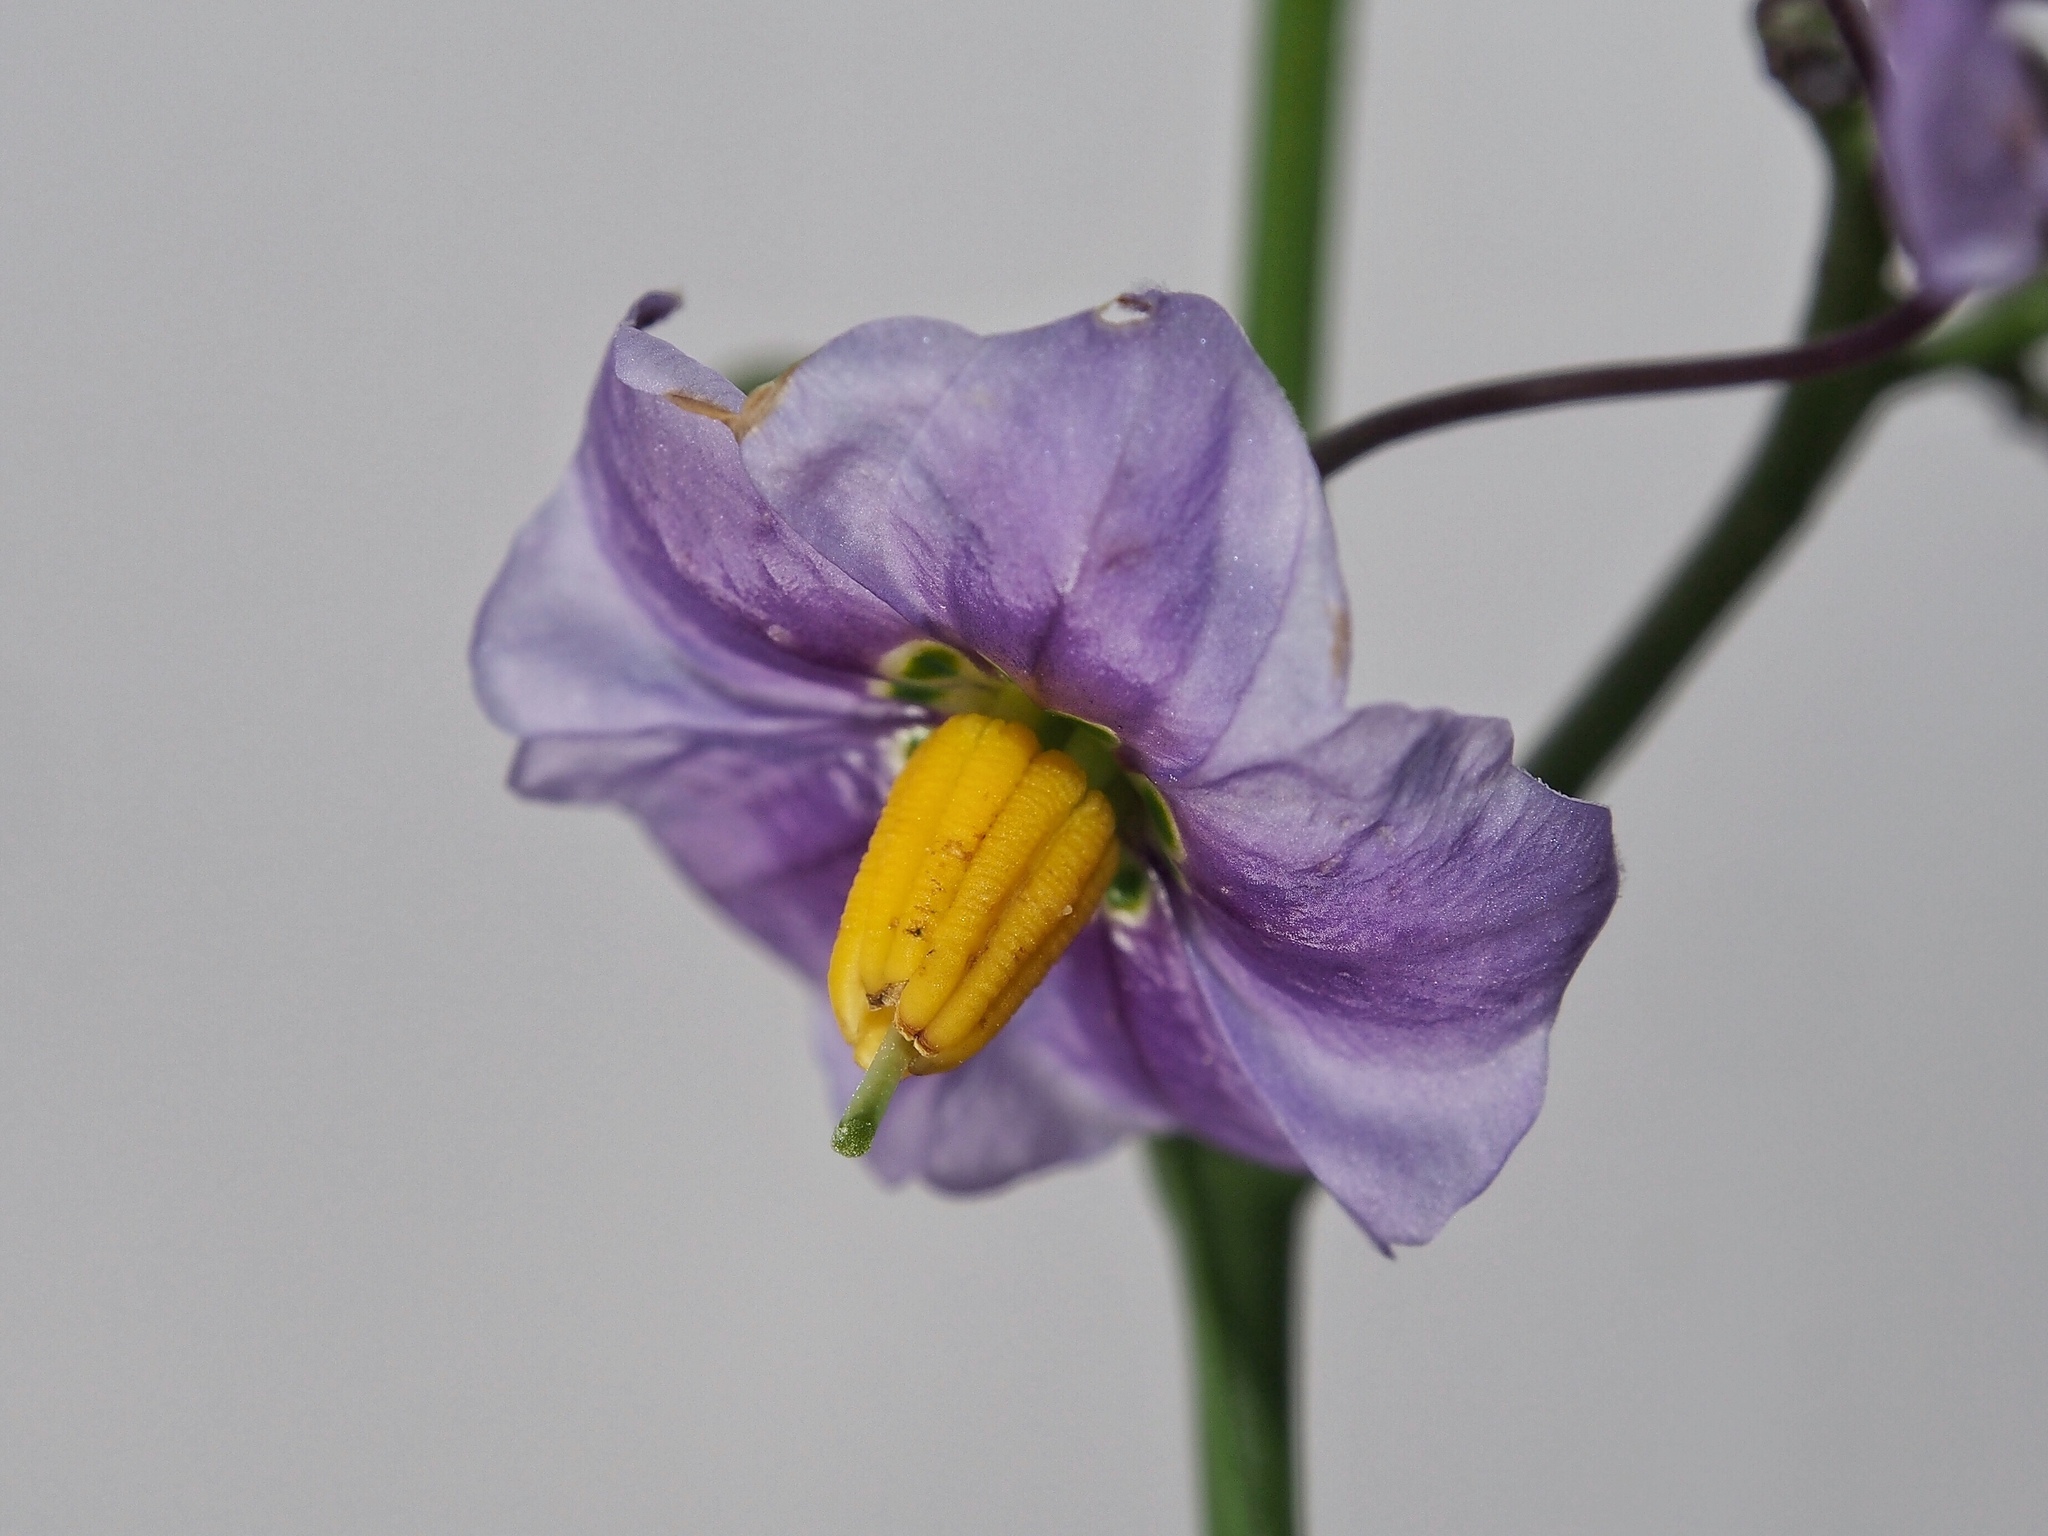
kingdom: Plantae
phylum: Tracheophyta
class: Magnoliopsida
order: Solanales
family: Solanaceae
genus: Solanum
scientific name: Solanum umbelliferum
